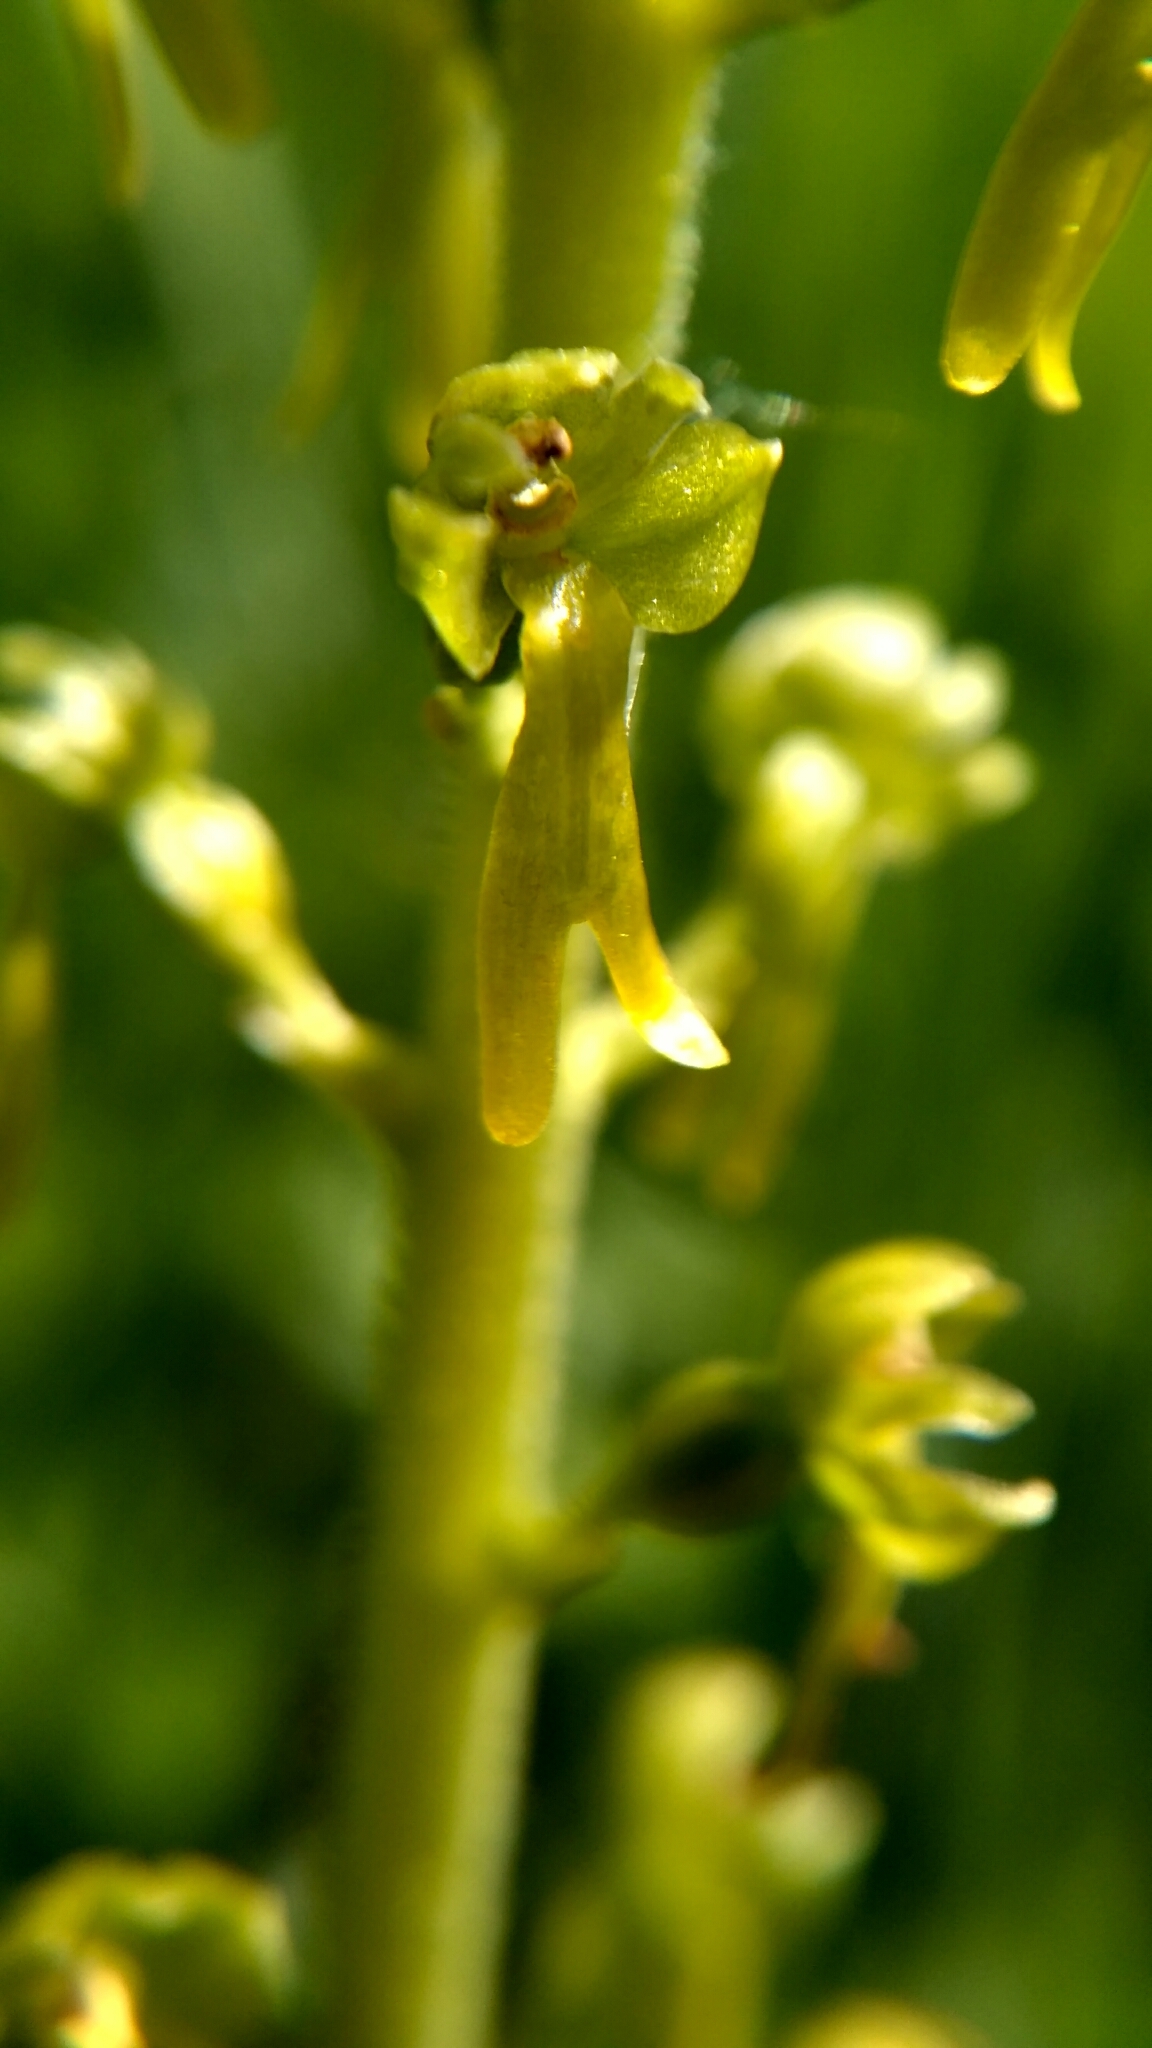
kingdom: Plantae
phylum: Tracheophyta
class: Liliopsida
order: Asparagales
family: Orchidaceae
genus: Neottia
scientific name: Neottia ovata
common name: Common twayblade
